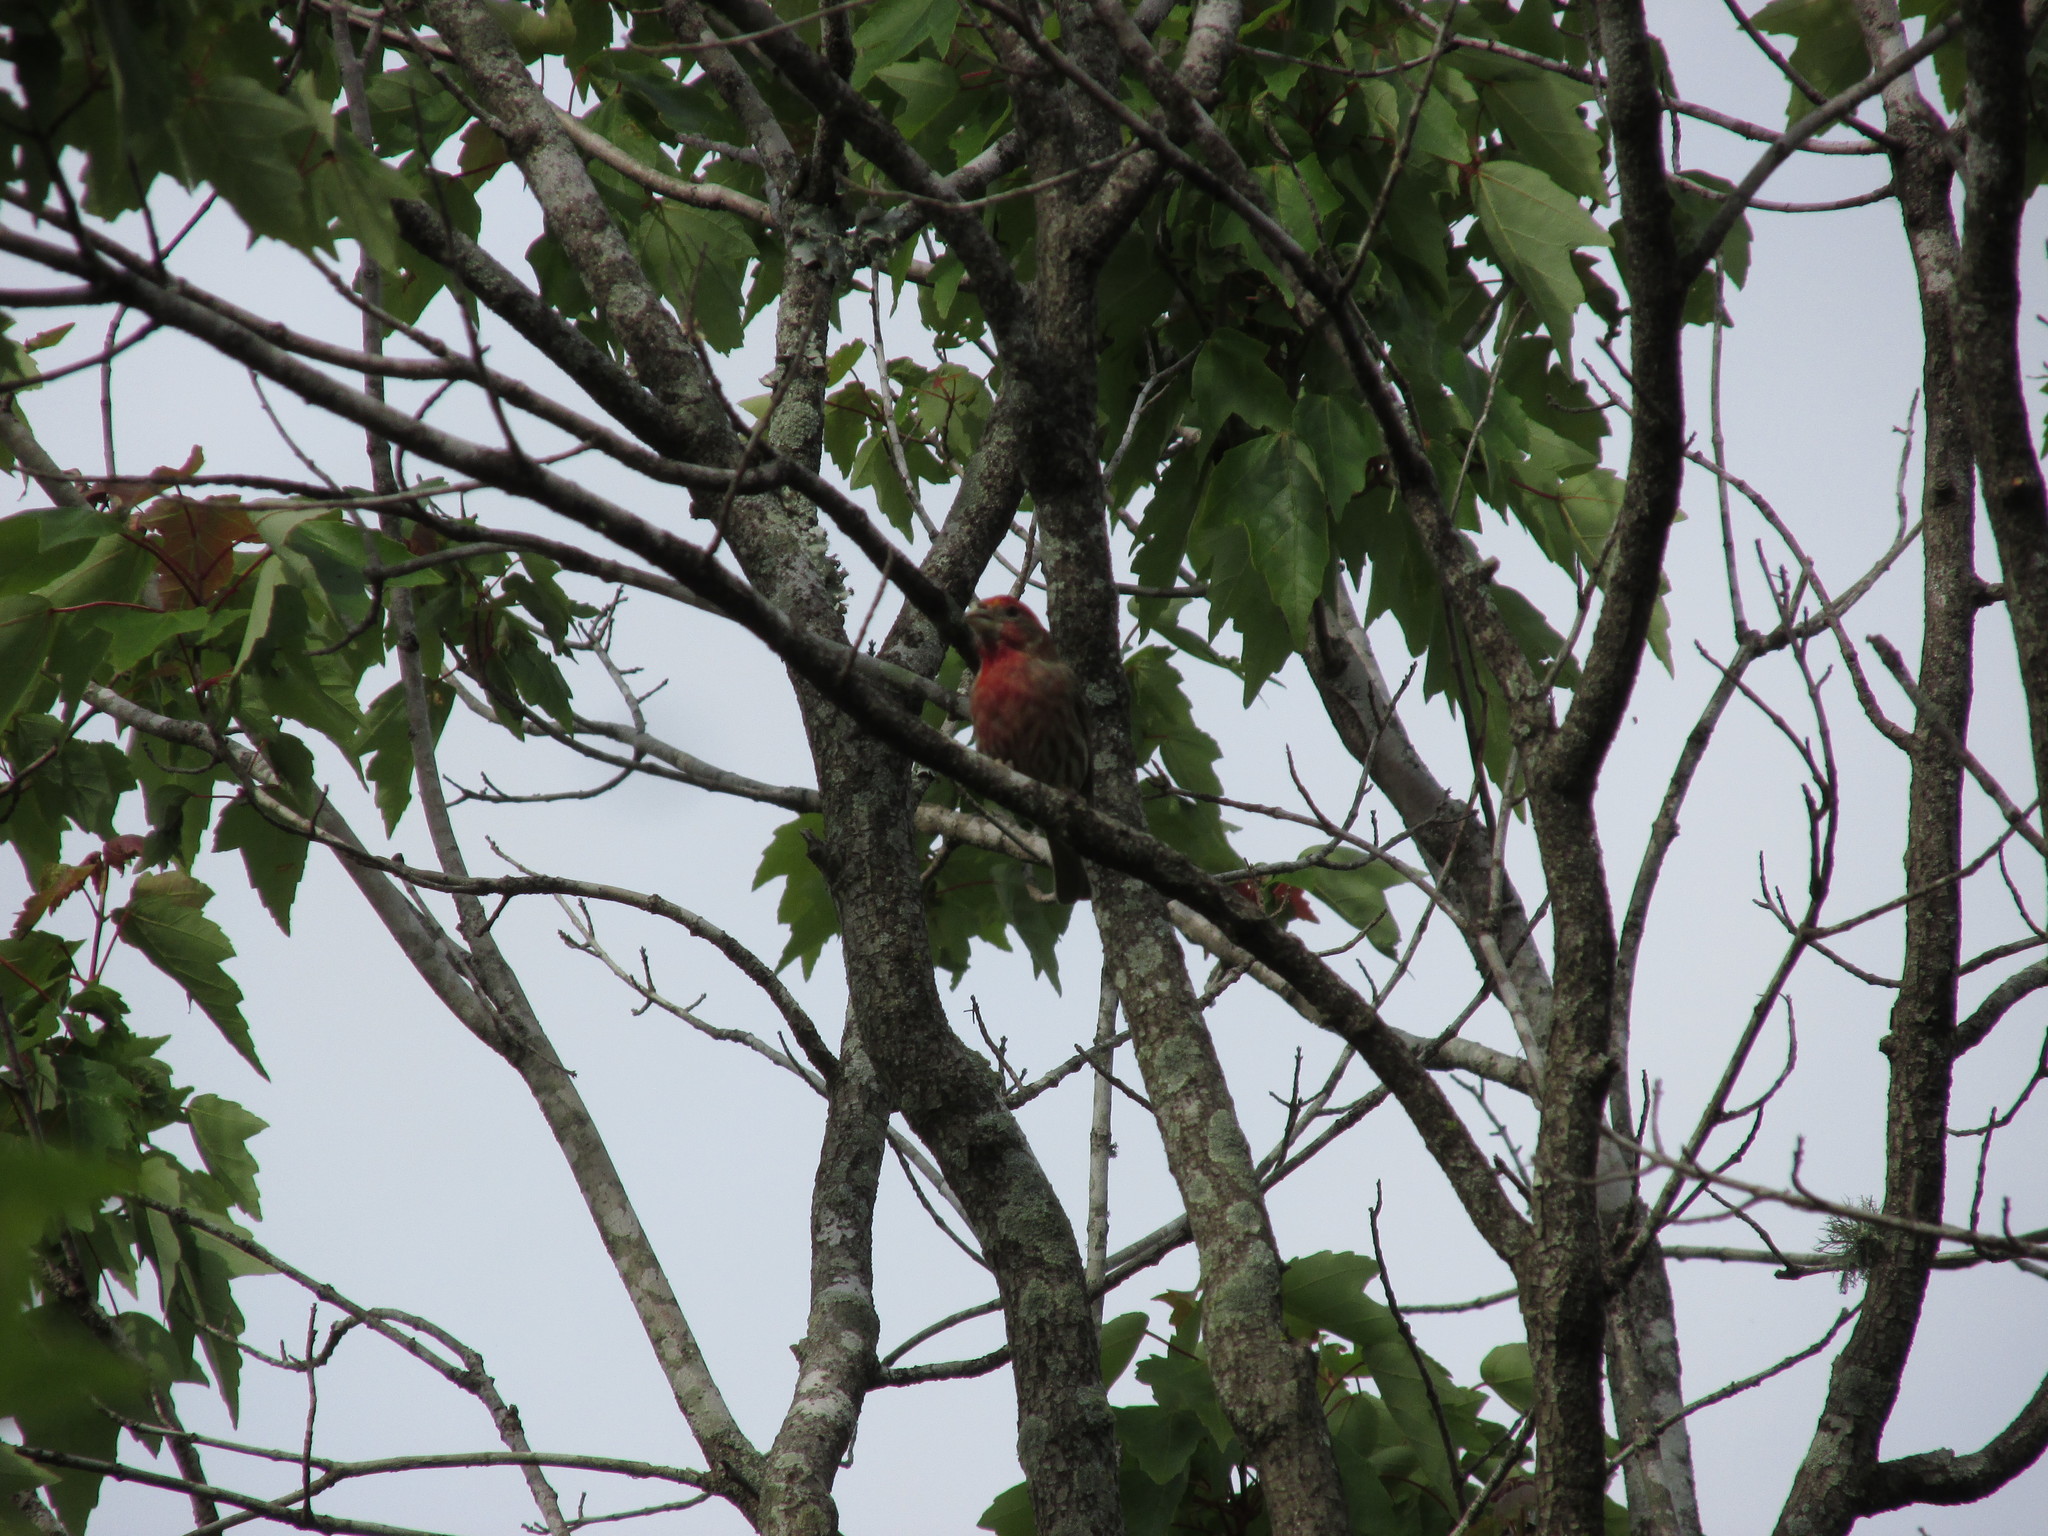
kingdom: Animalia
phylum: Chordata
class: Aves
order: Passeriformes
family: Fringillidae
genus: Haemorhous
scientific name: Haemorhous mexicanus
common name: House finch
